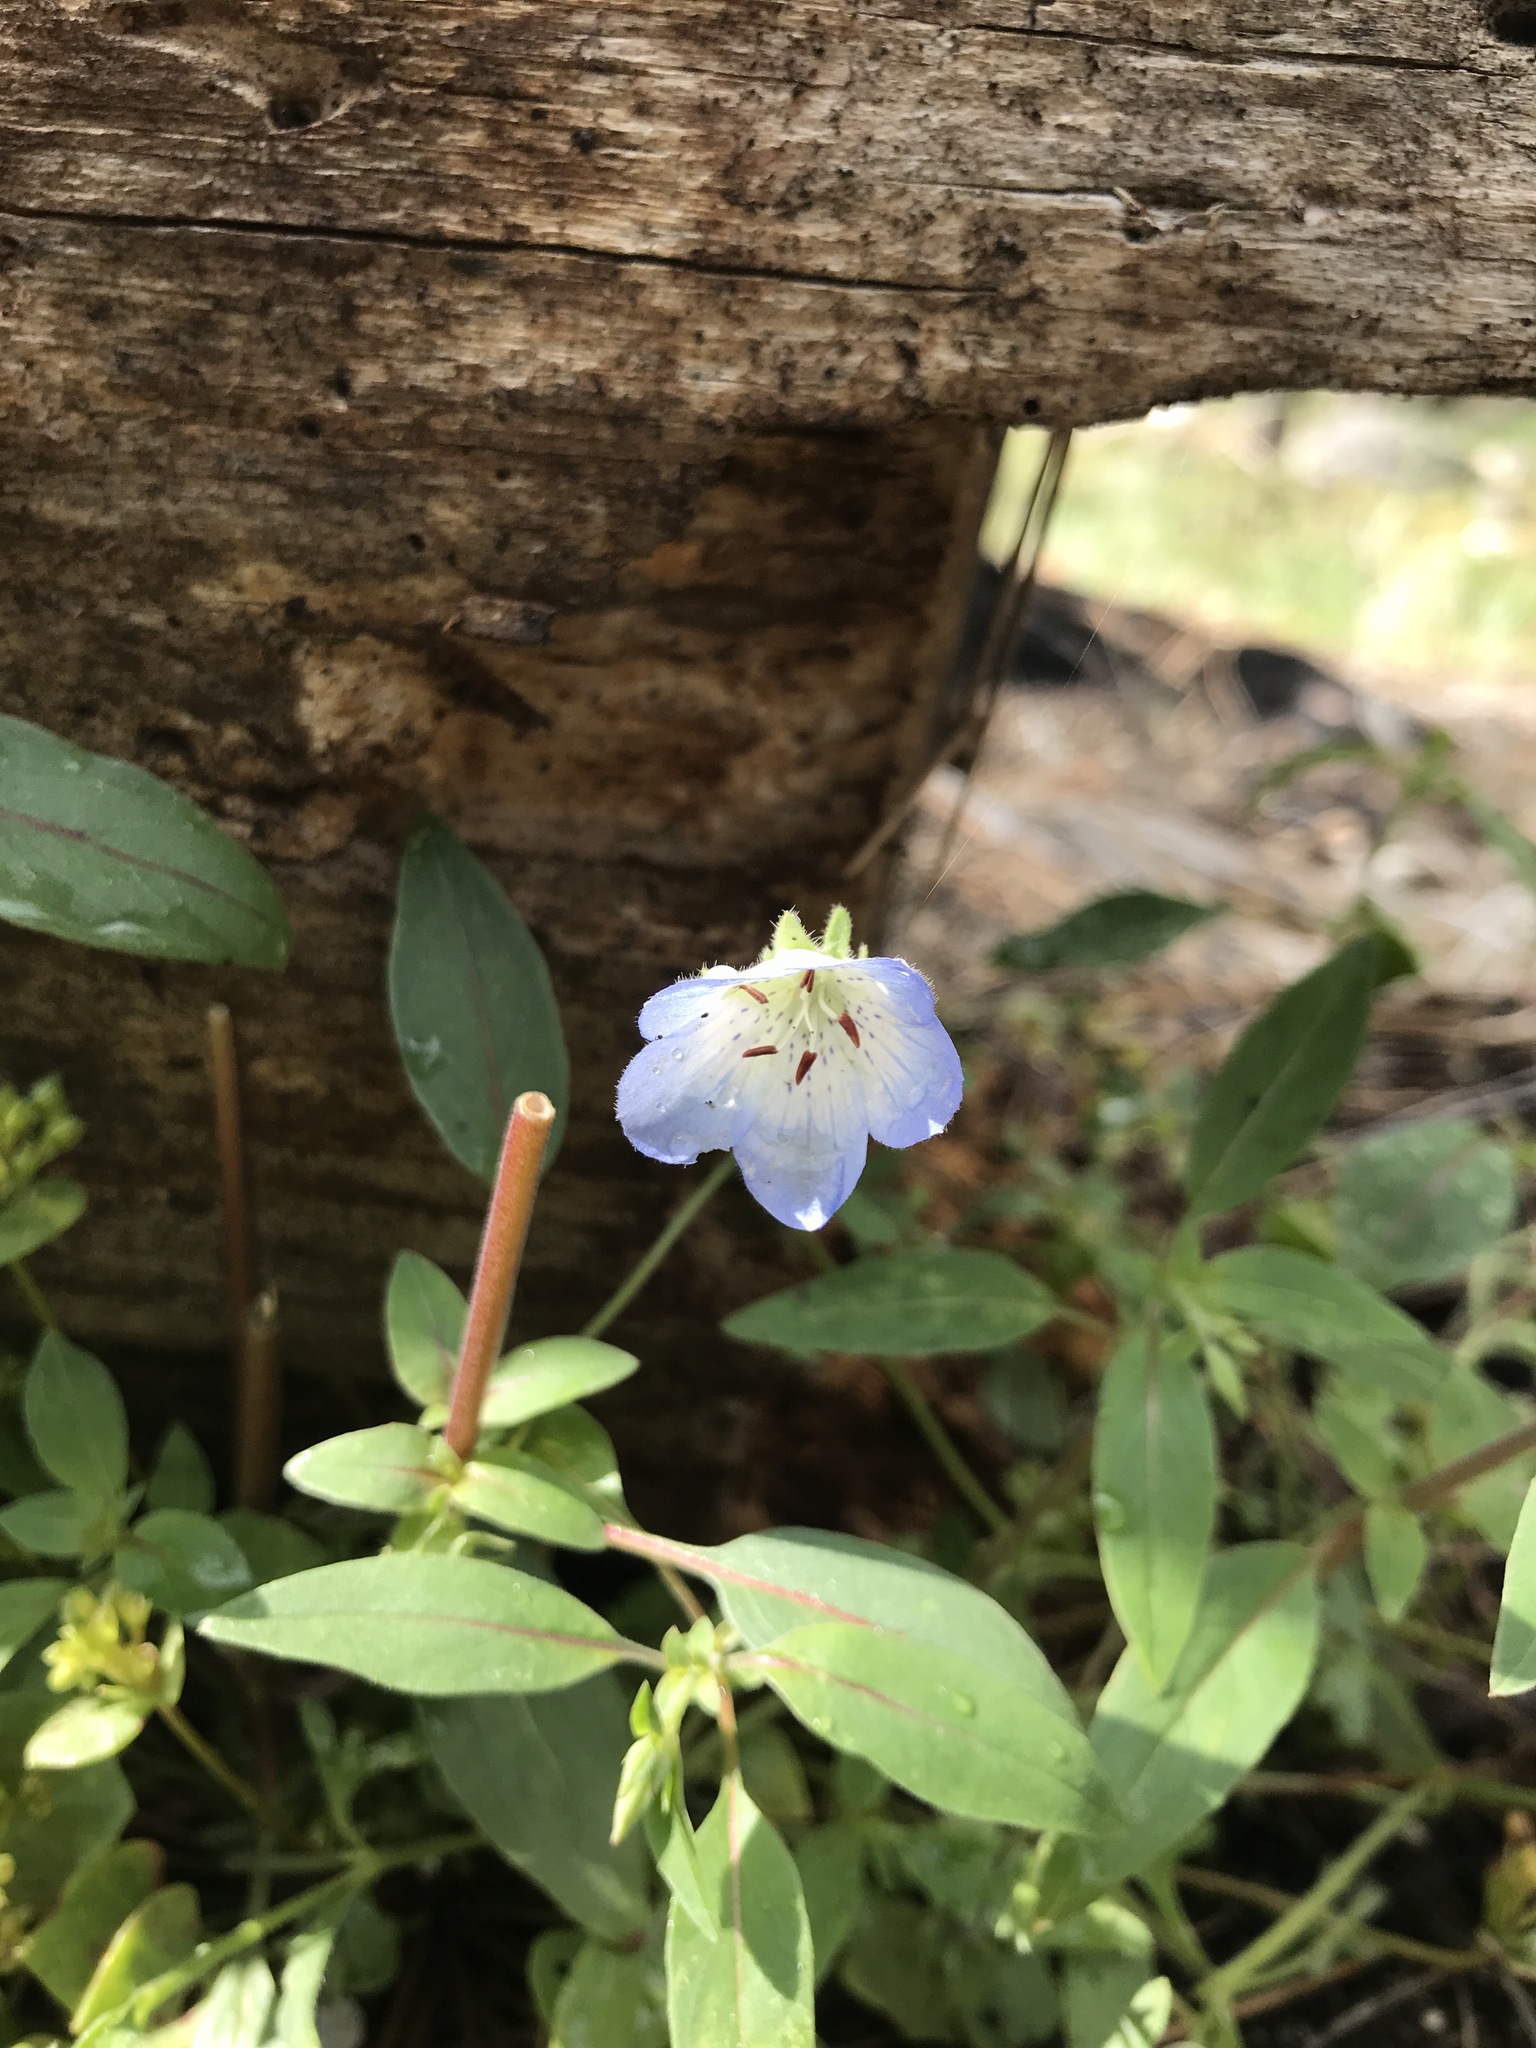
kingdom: Plantae
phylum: Tracheophyta
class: Magnoliopsida
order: Boraginales
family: Hydrophyllaceae
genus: Nemophila
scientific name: Nemophila menziesii
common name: Baby's-blue-eyes
